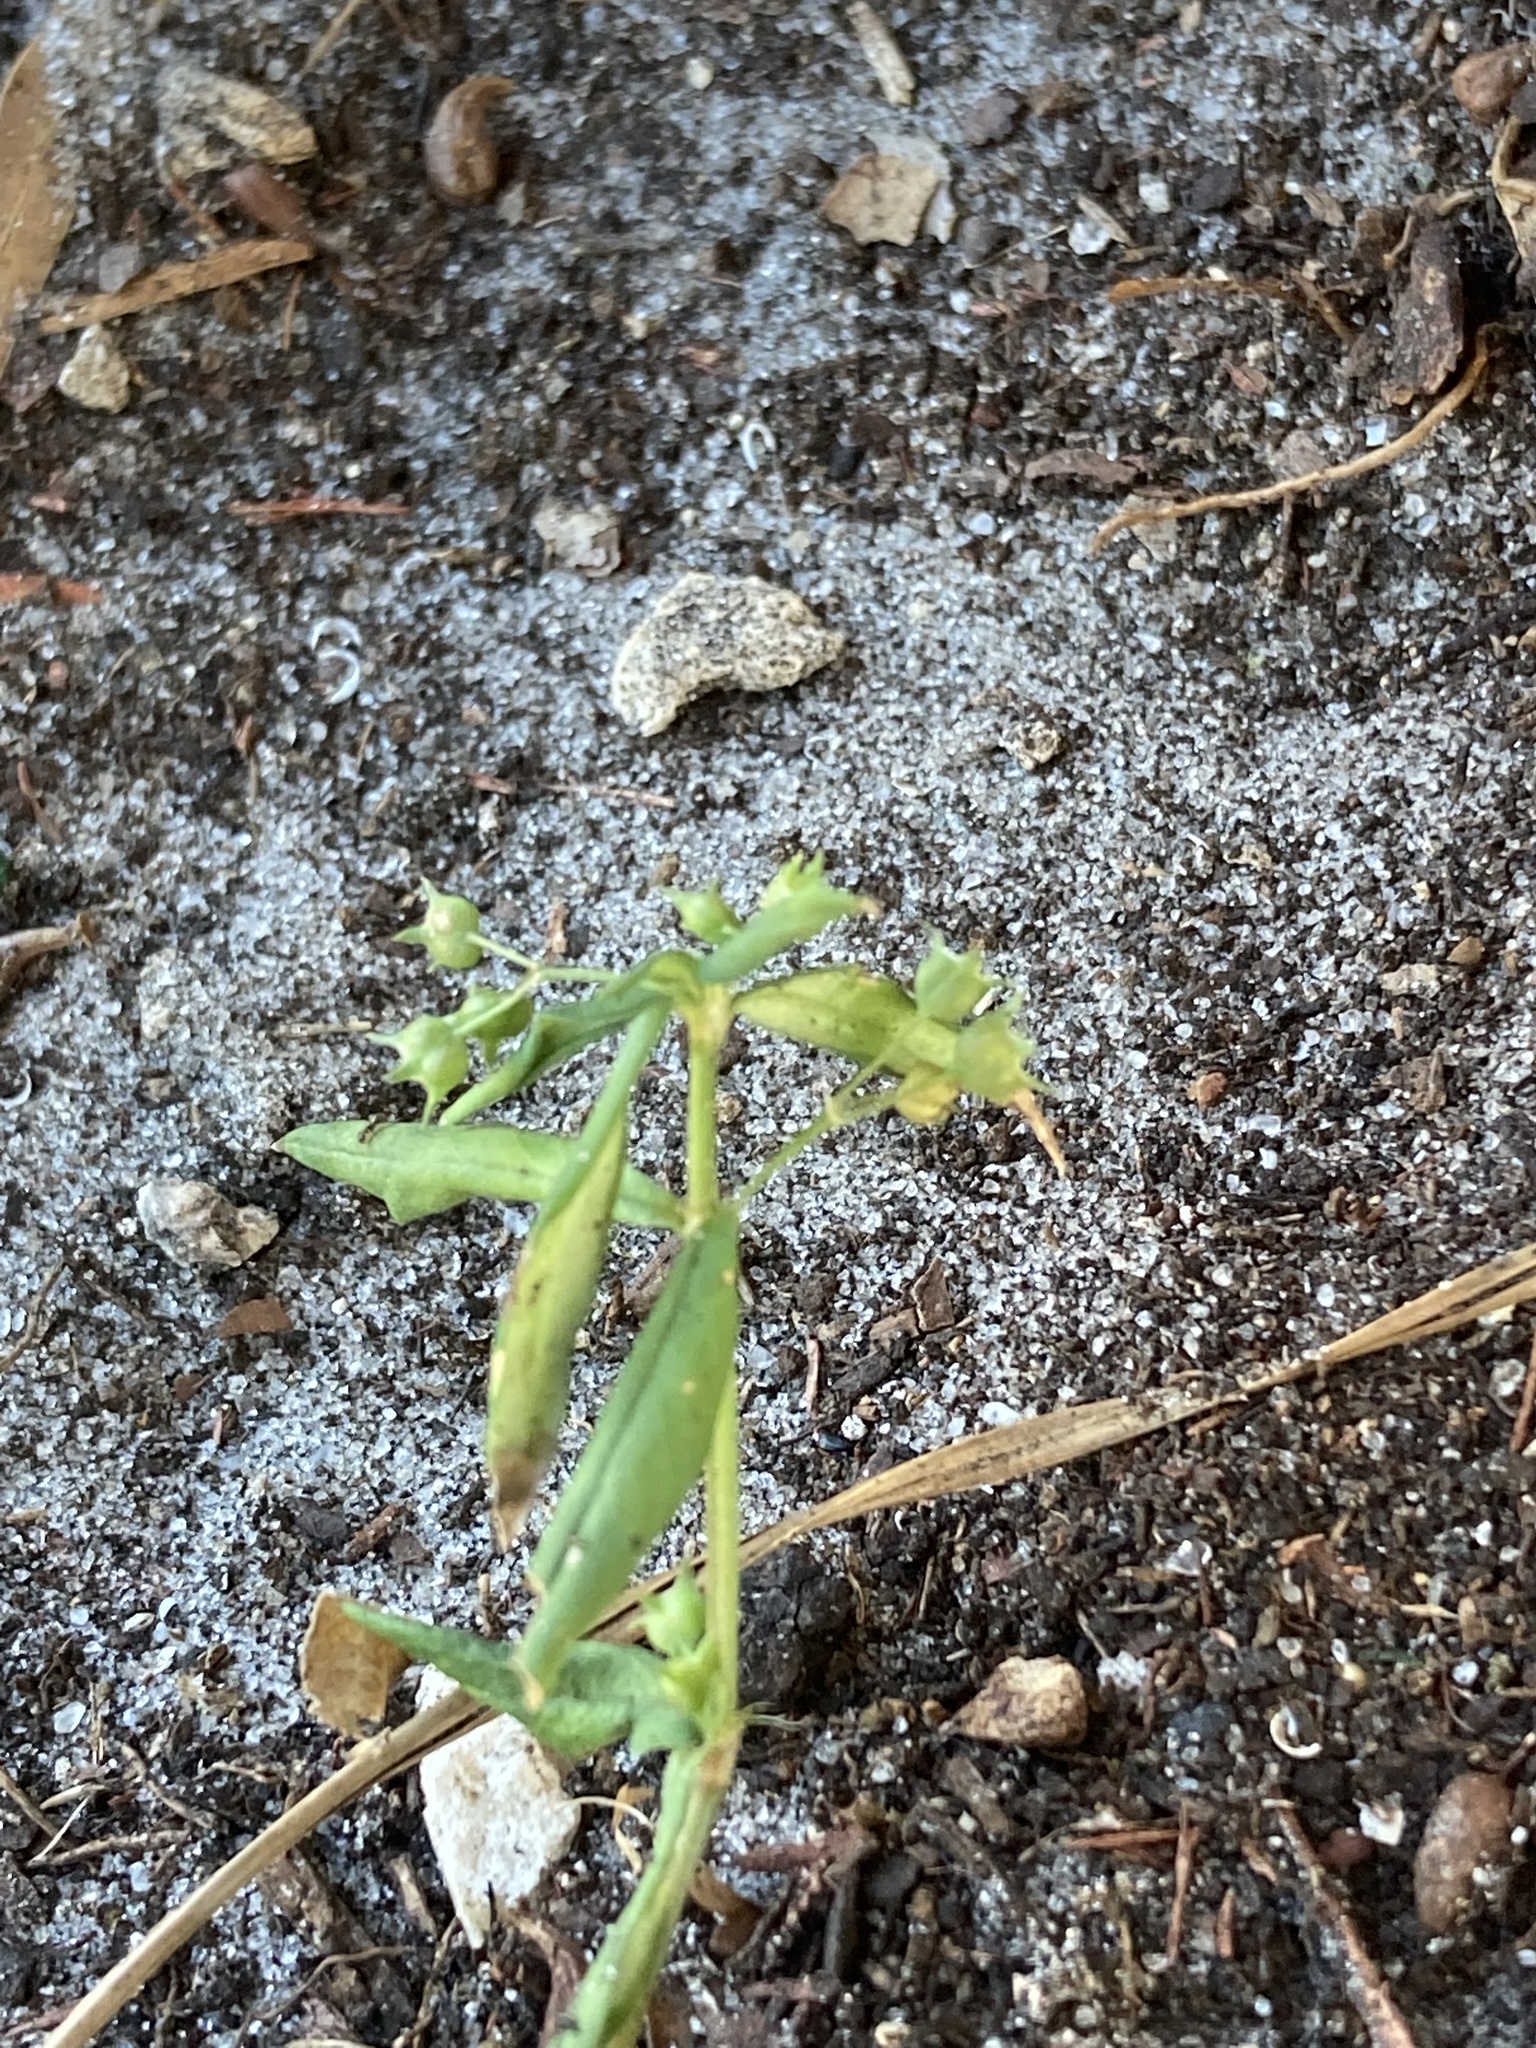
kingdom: Plantae
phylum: Tracheophyta
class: Magnoliopsida
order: Gentianales
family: Rubiaceae
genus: Oldenlandia
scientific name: Oldenlandia corymbosa
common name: Flat-top mille graines
